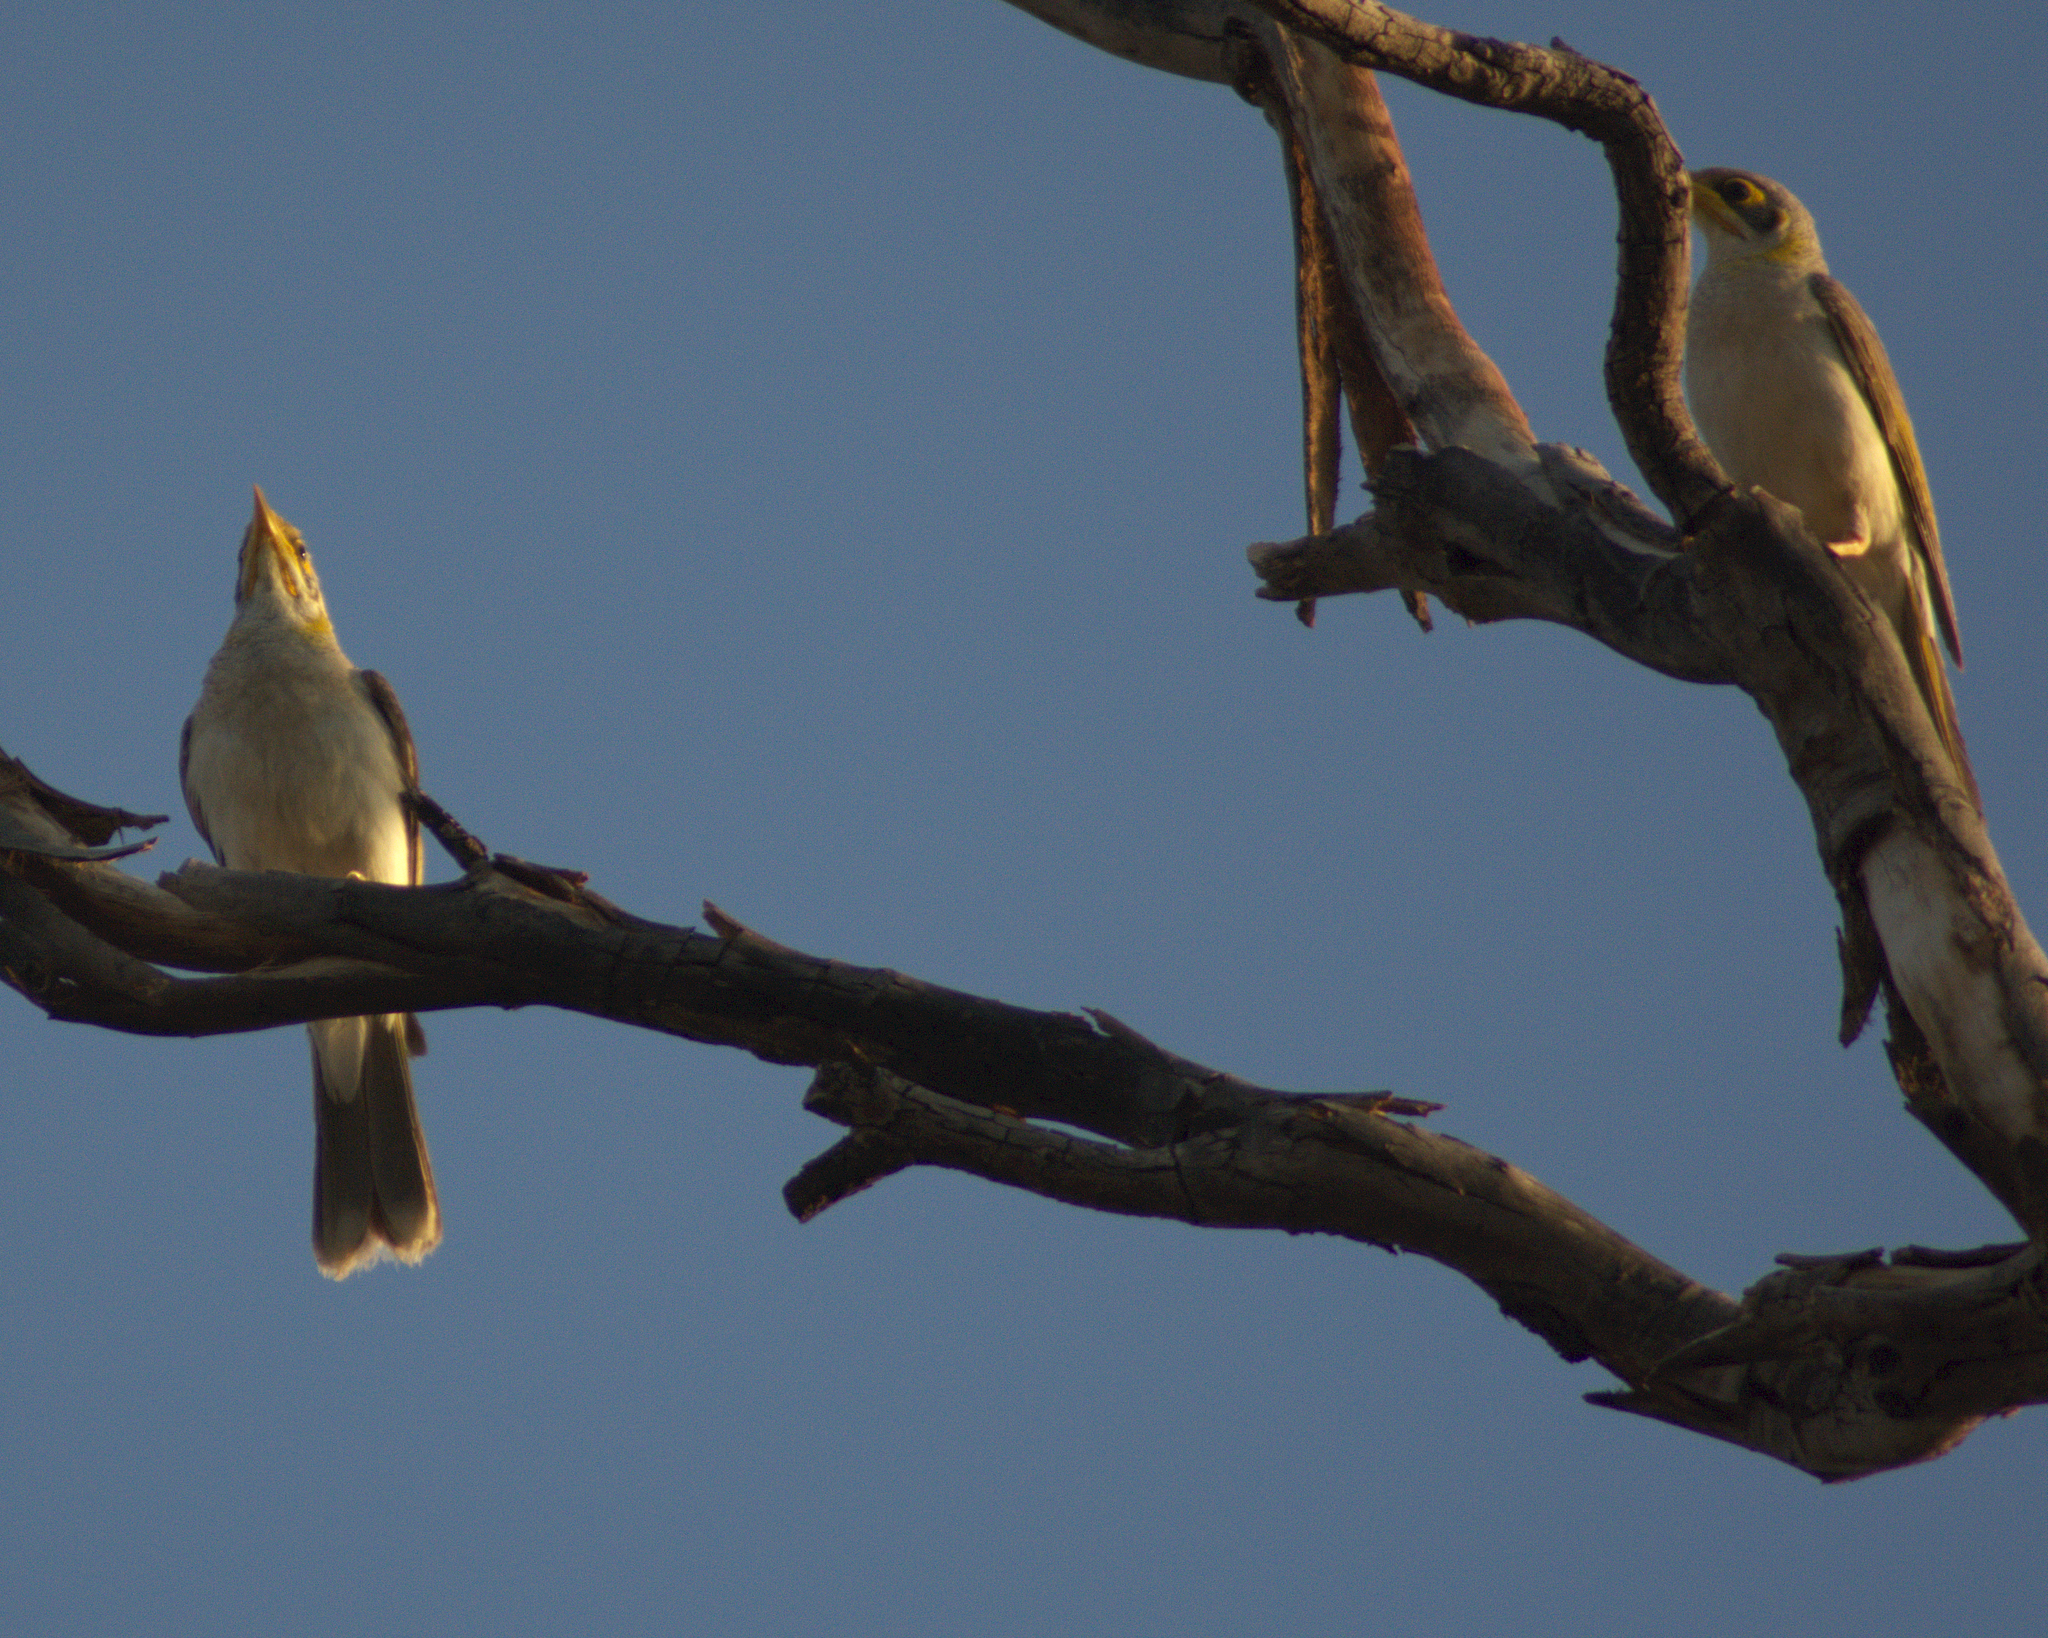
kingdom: Animalia
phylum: Chordata
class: Aves
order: Passeriformes
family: Meliphagidae
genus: Manorina
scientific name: Manorina flavigula
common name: Yellow-throated miner
